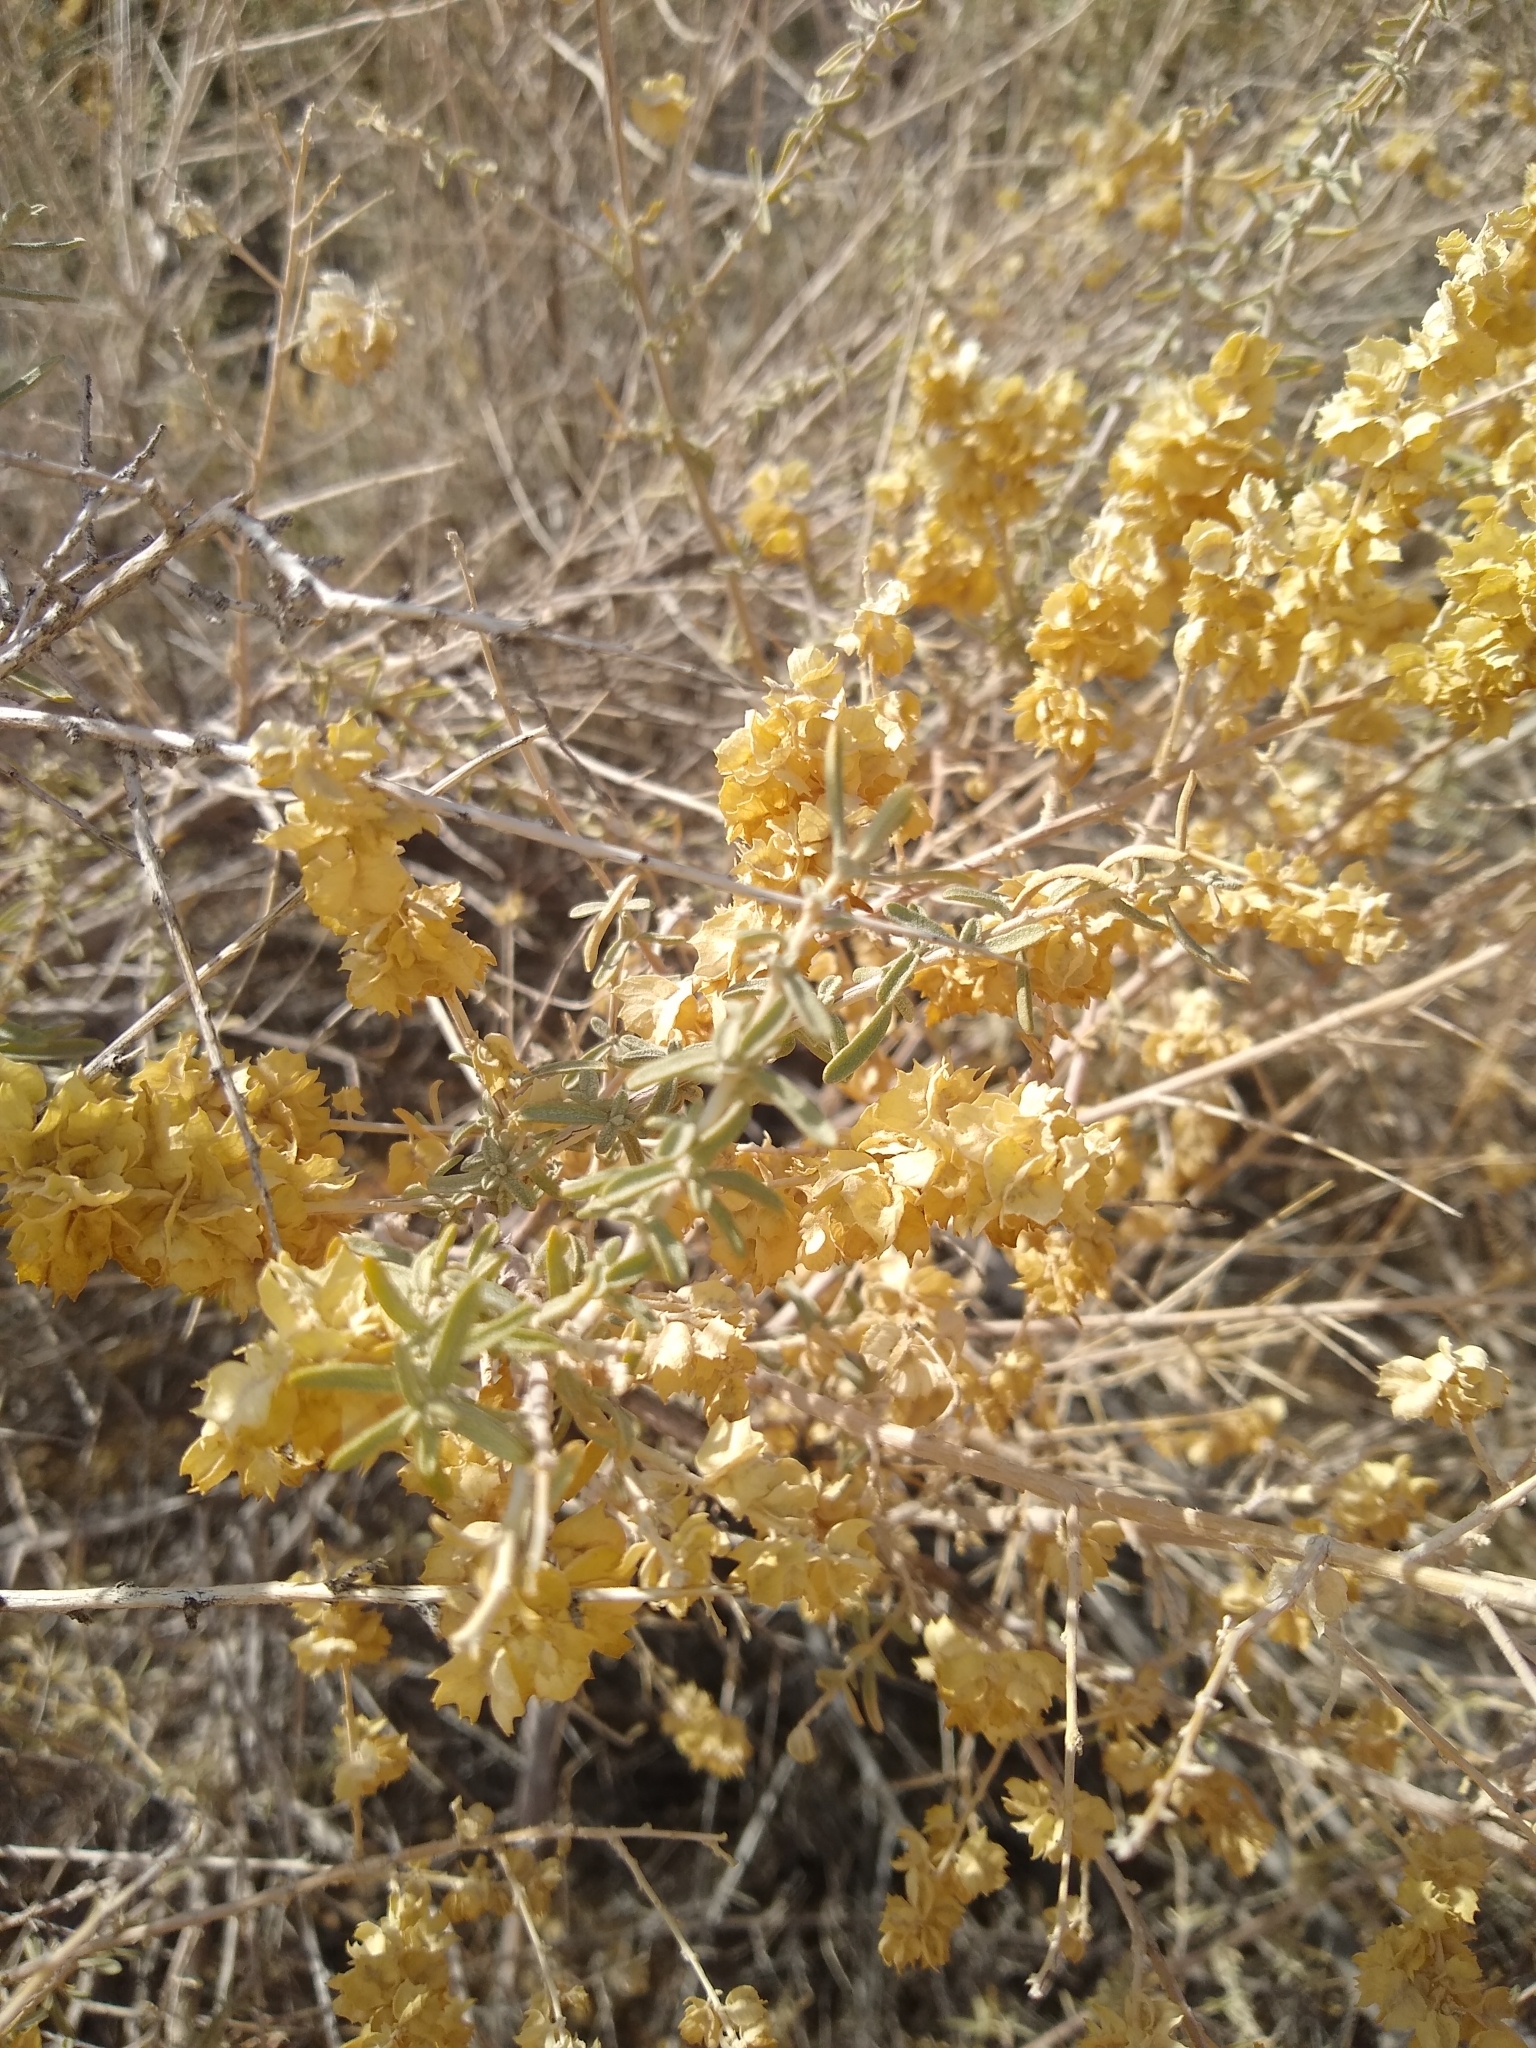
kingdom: Plantae
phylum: Tracheophyta
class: Magnoliopsida
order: Caryophyllales
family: Amaranthaceae
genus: Atriplex
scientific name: Atriplex canescens
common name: Four-wing saltbush
